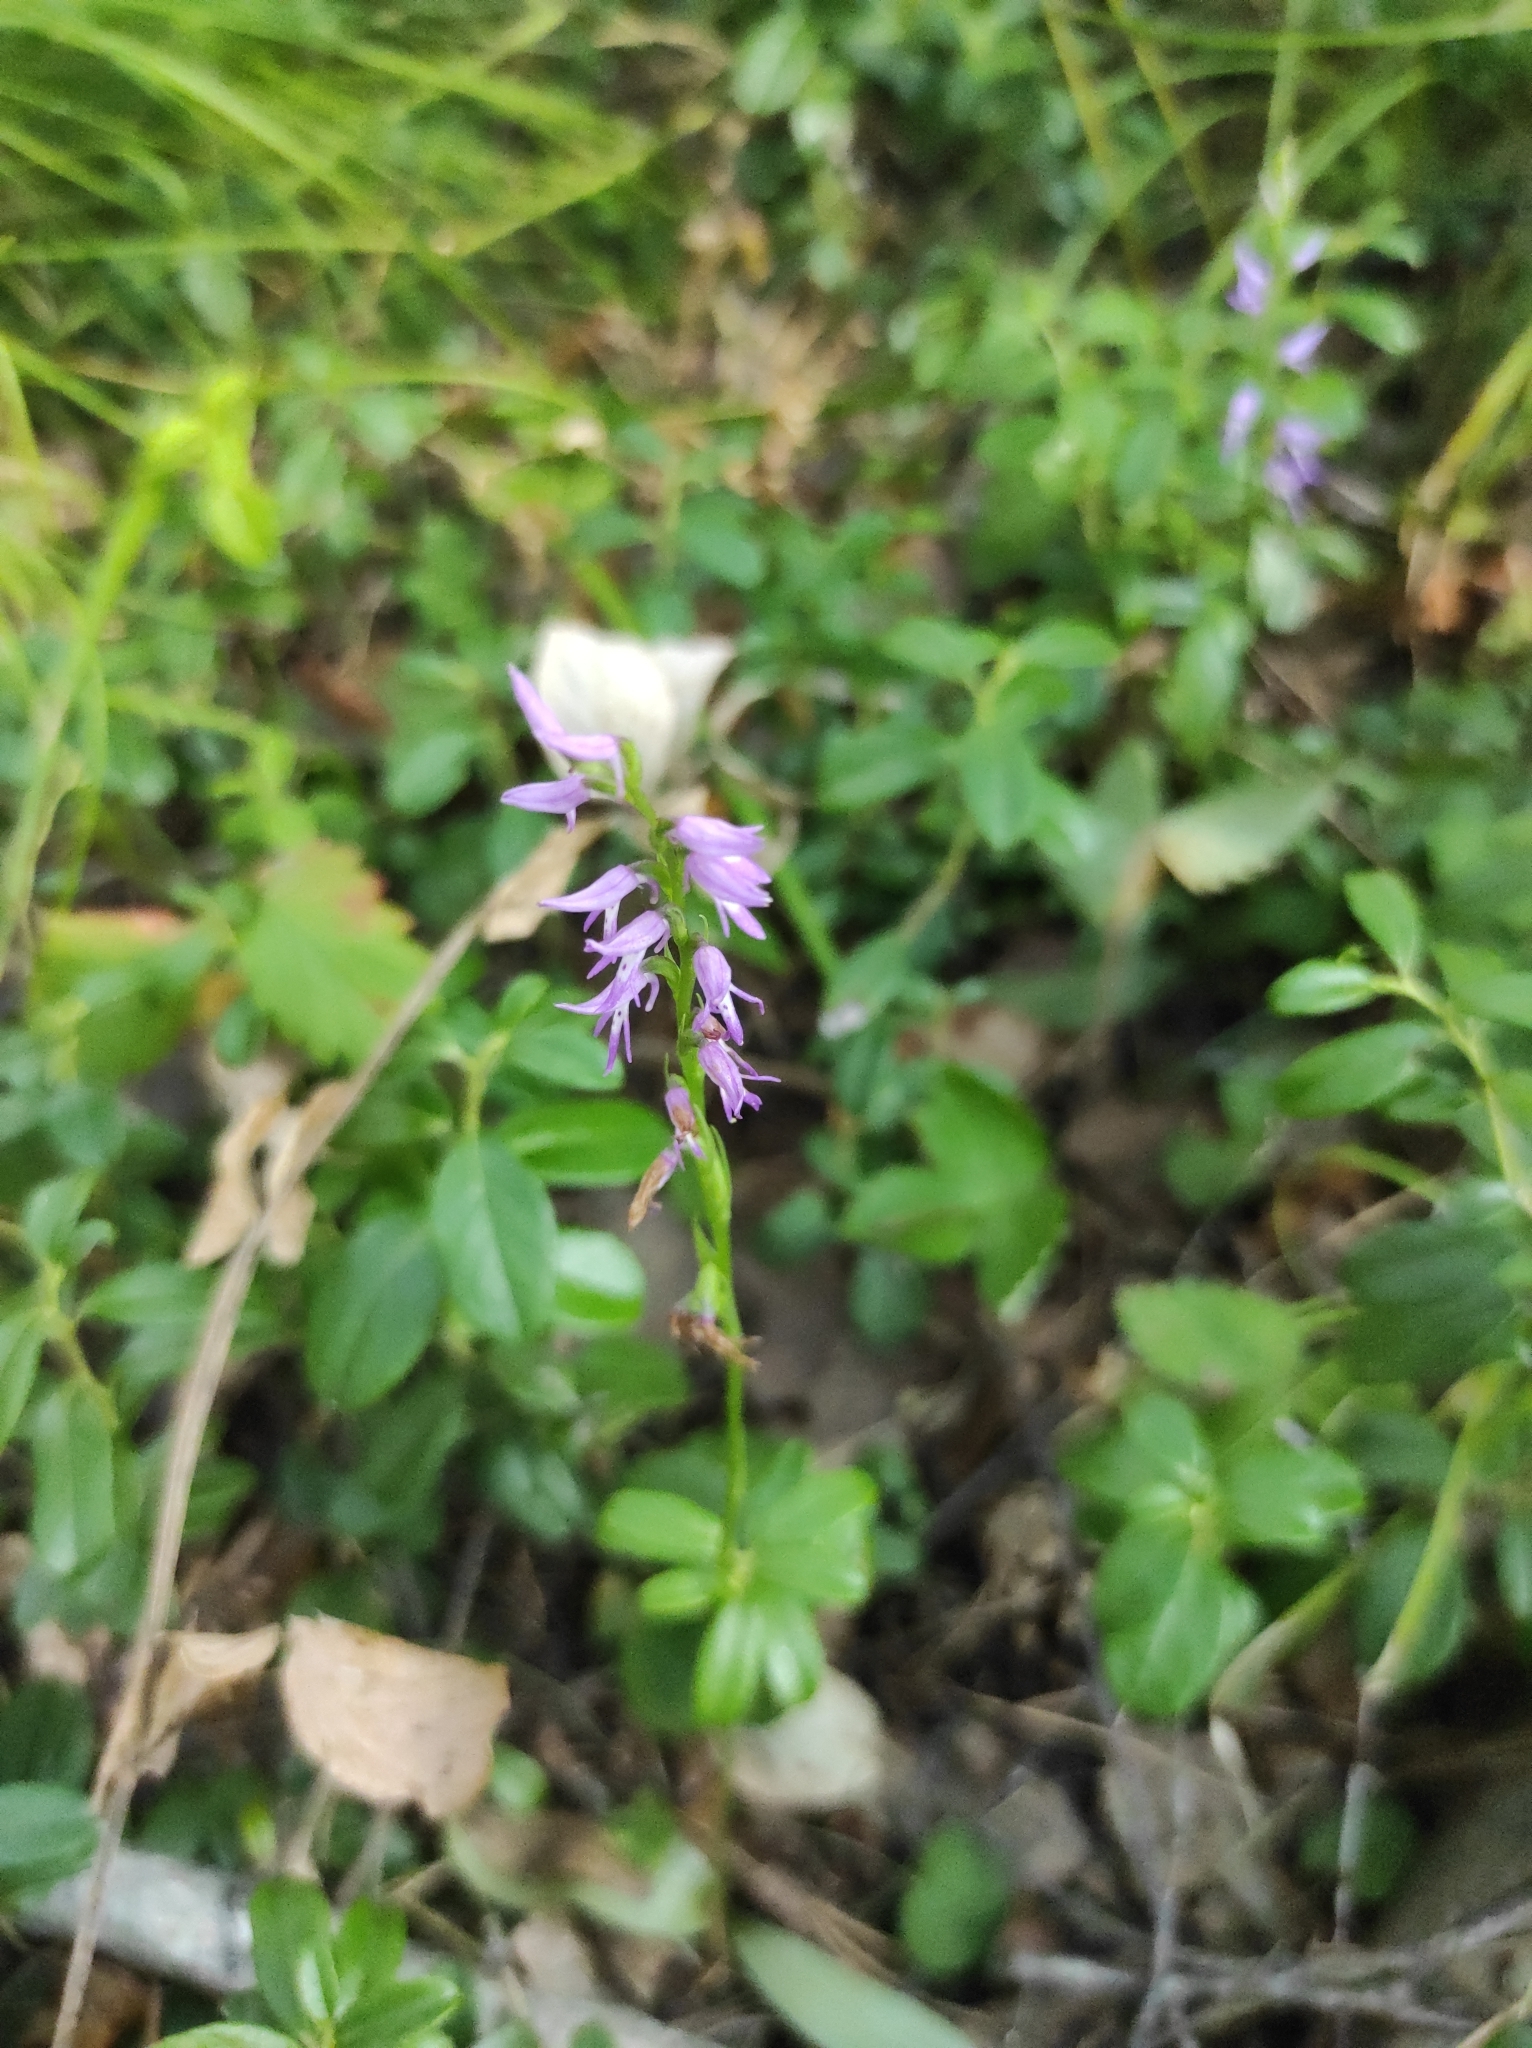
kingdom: Plantae
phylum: Tracheophyta
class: Liliopsida
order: Asparagales
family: Orchidaceae
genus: Hemipilia
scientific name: Hemipilia cucullata
